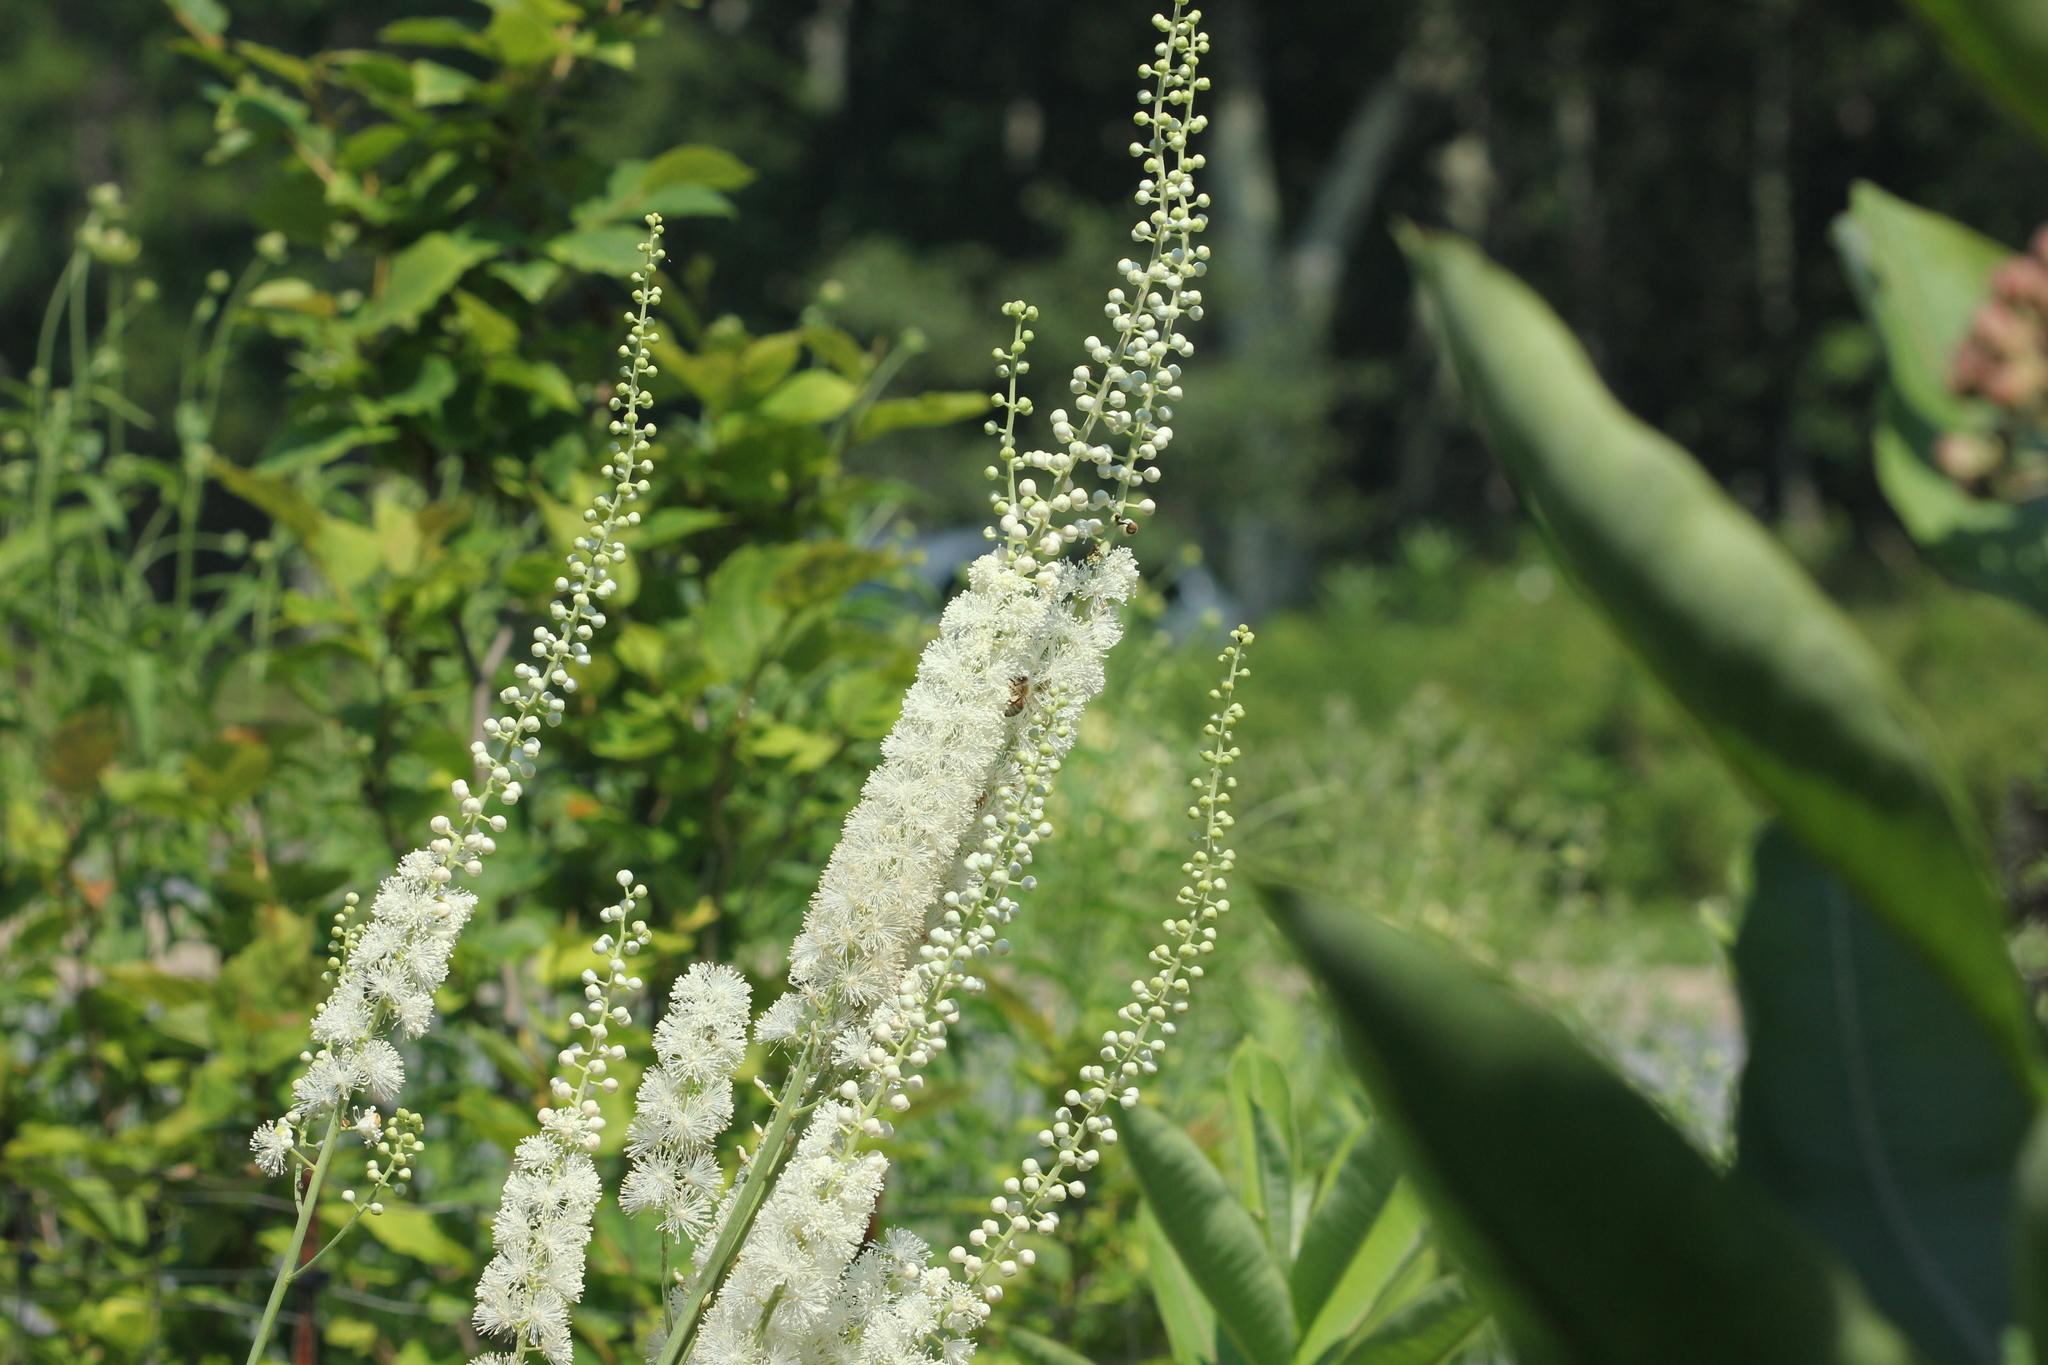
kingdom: Plantae
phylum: Tracheophyta
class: Magnoliopsida
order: Ranunculales
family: Ranunculaceae
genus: Actaea
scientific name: Actaea racemosa
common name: Black cohosh
